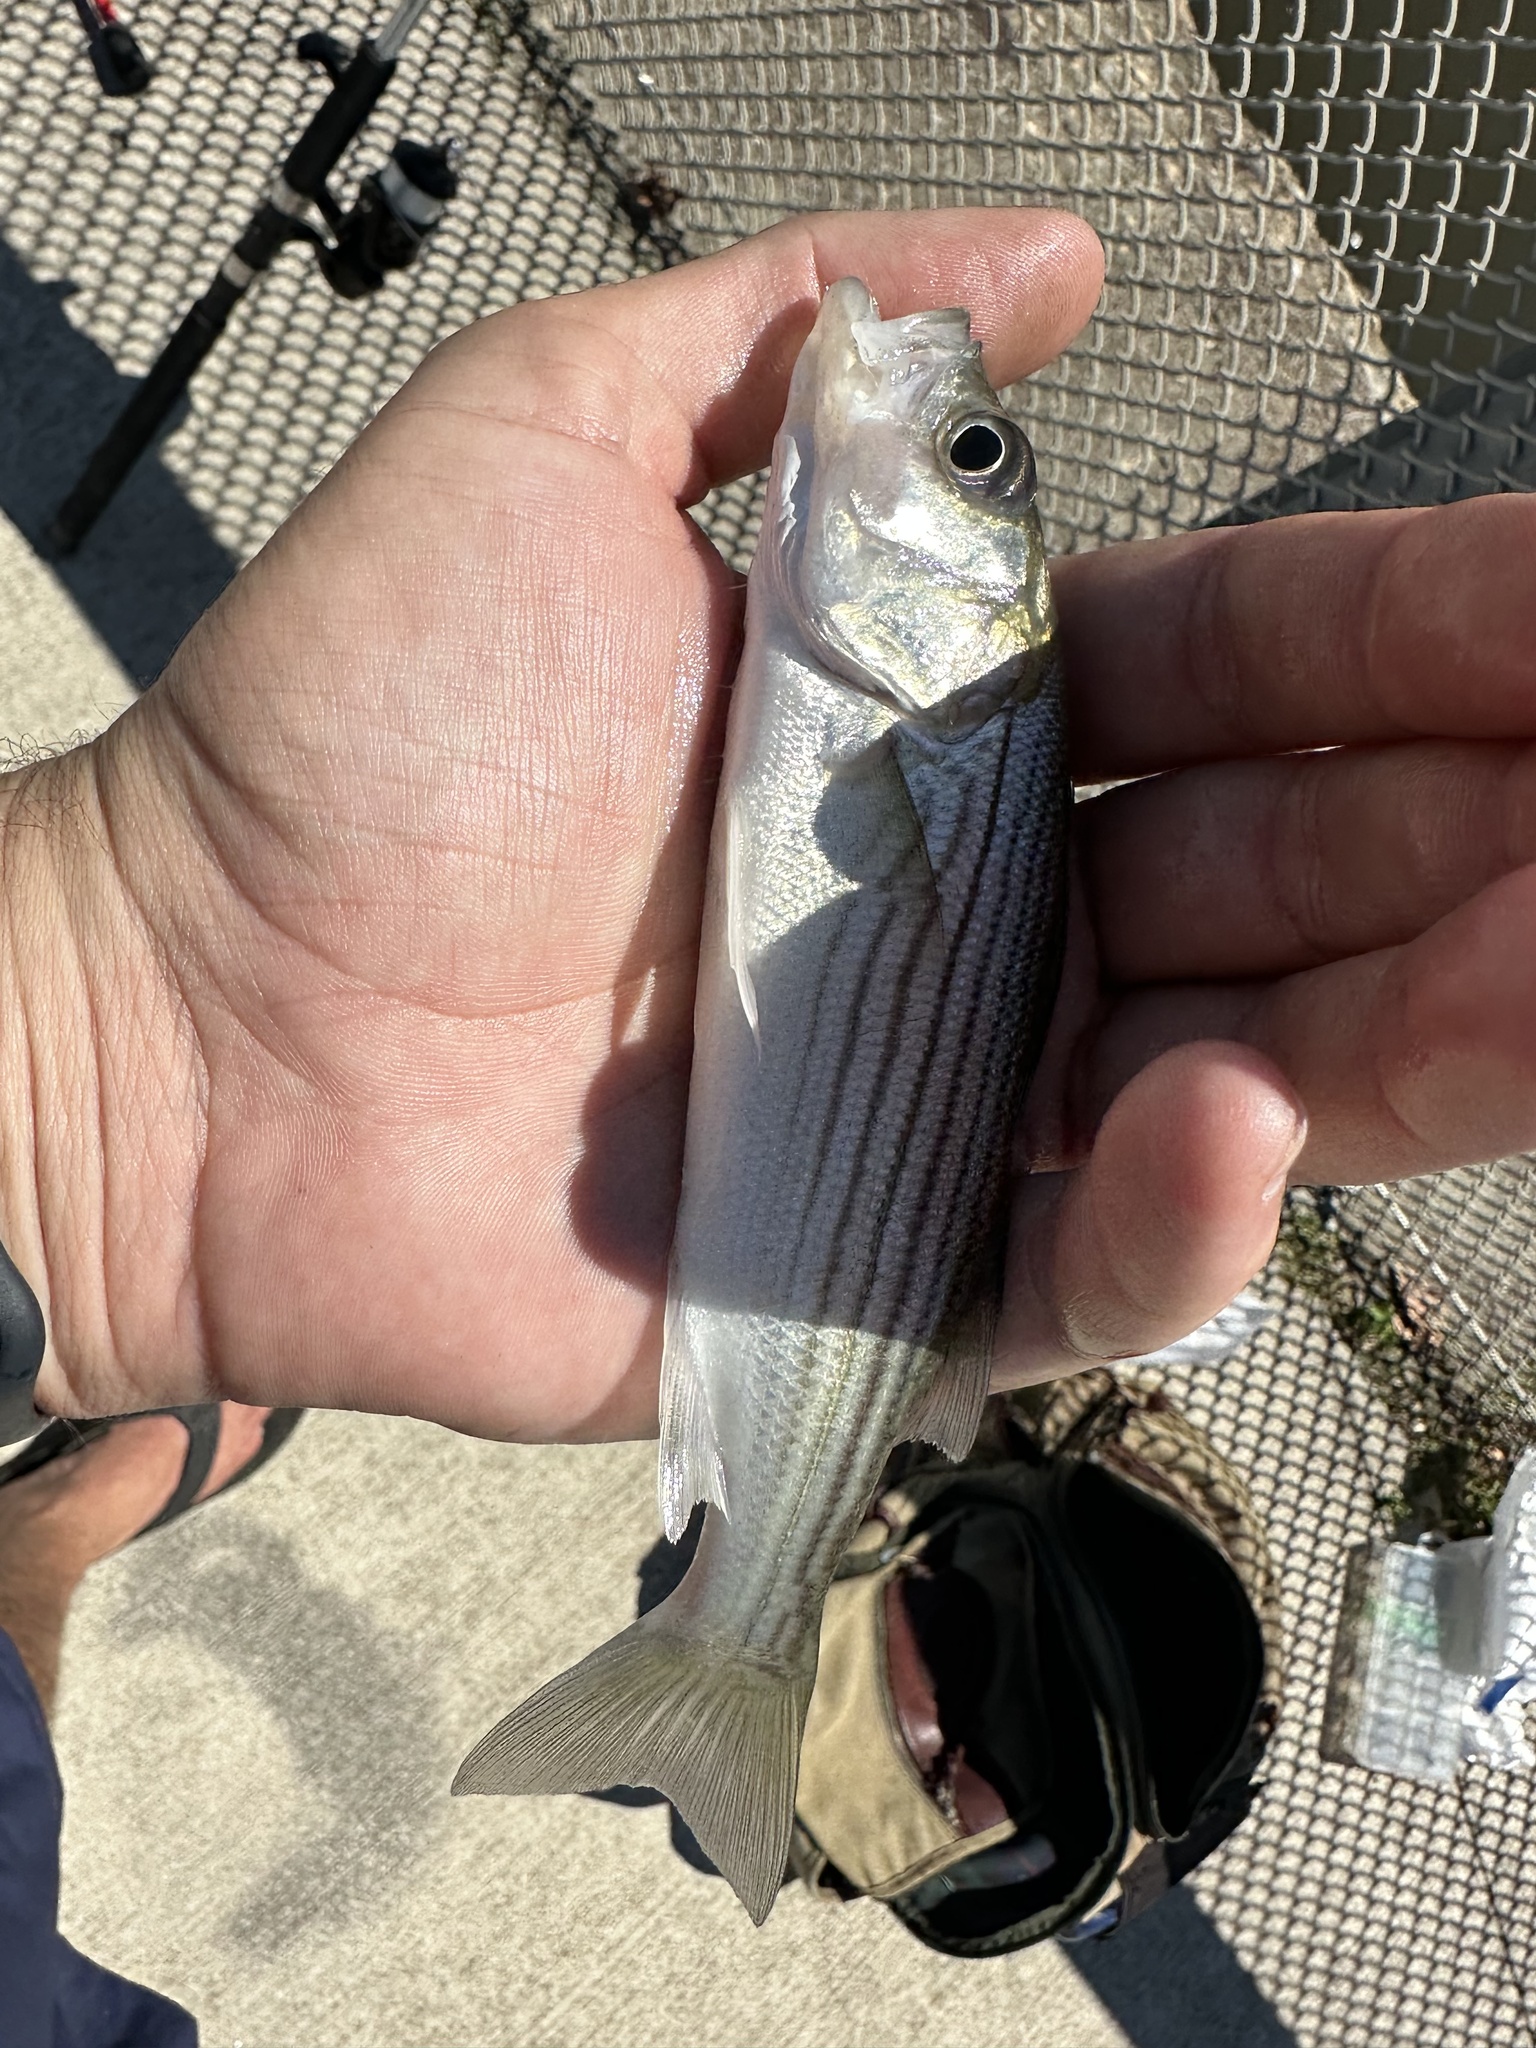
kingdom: Animalia
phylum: Chordata
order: Perciformes
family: Moronidae
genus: Morone
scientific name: Morone saxatilis
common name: Striped bass
